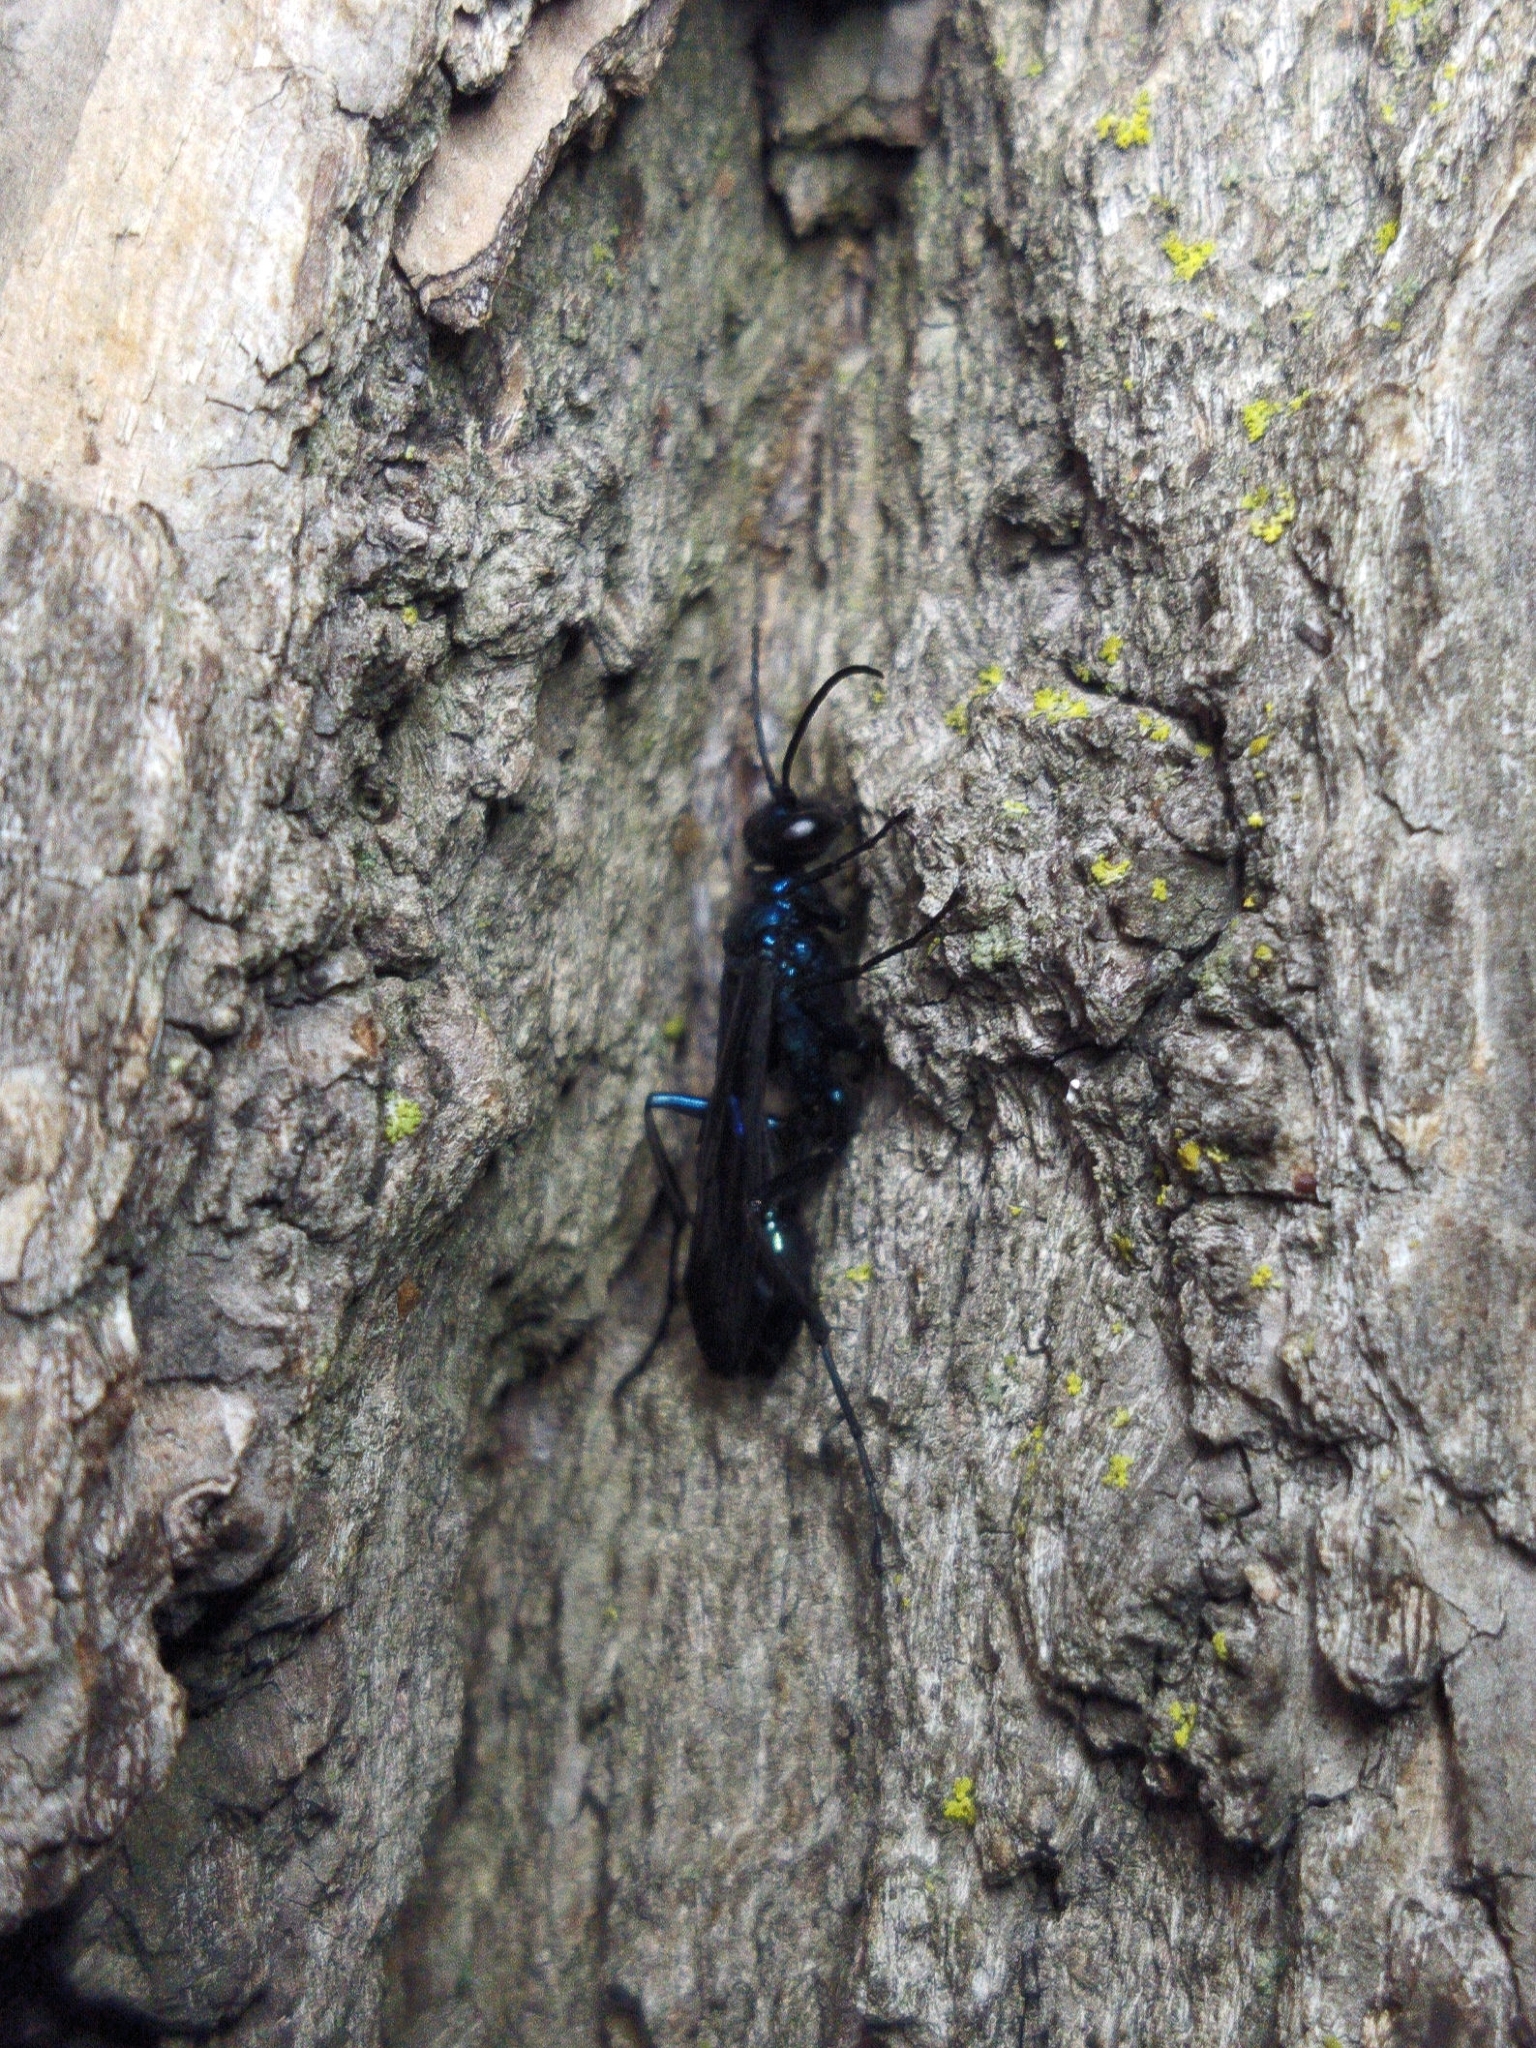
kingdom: Animalia
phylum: Arthropoda
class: Insecta
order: Hymenoptera
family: Sphecidae
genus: Chalybion
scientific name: Chalybion californicum
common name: Mud dauber
